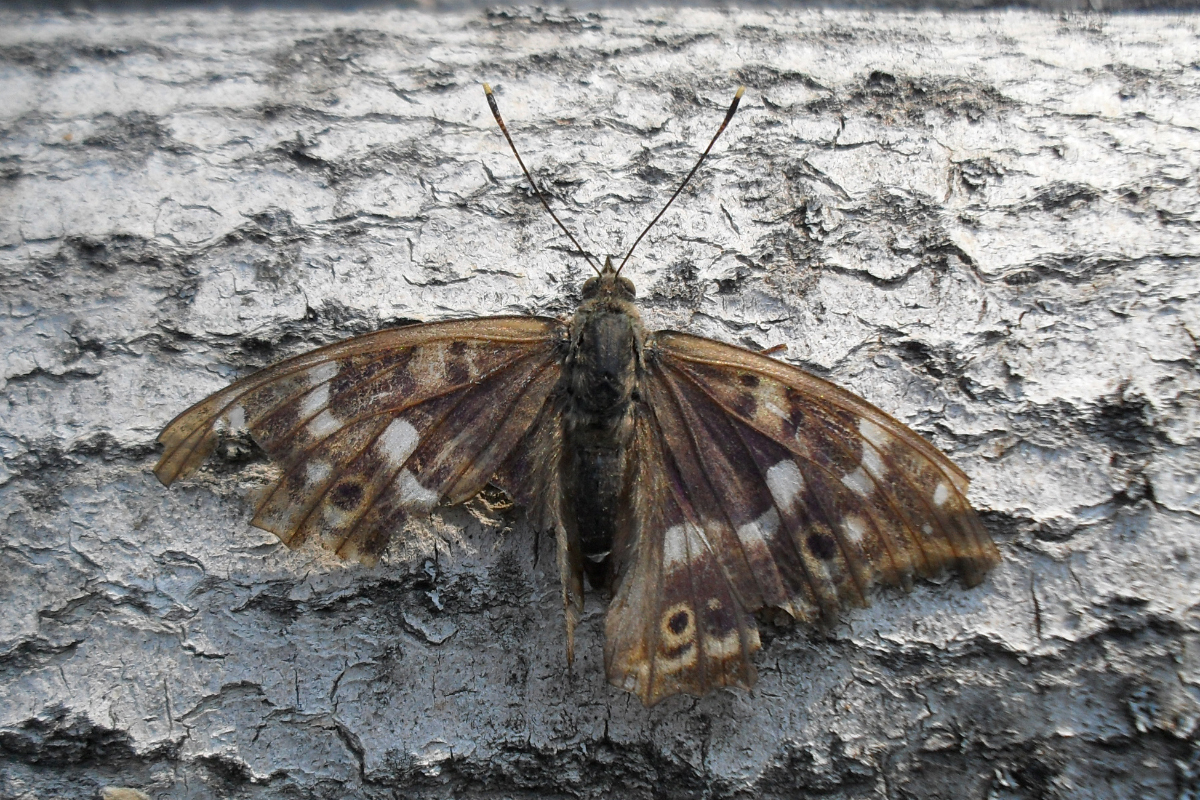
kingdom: Animalia
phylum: Arthropoda
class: Insecta
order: Lepidoptera
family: Nymphalidae
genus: Apatura
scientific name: Apatura ilia
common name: Lesser purple emperor
